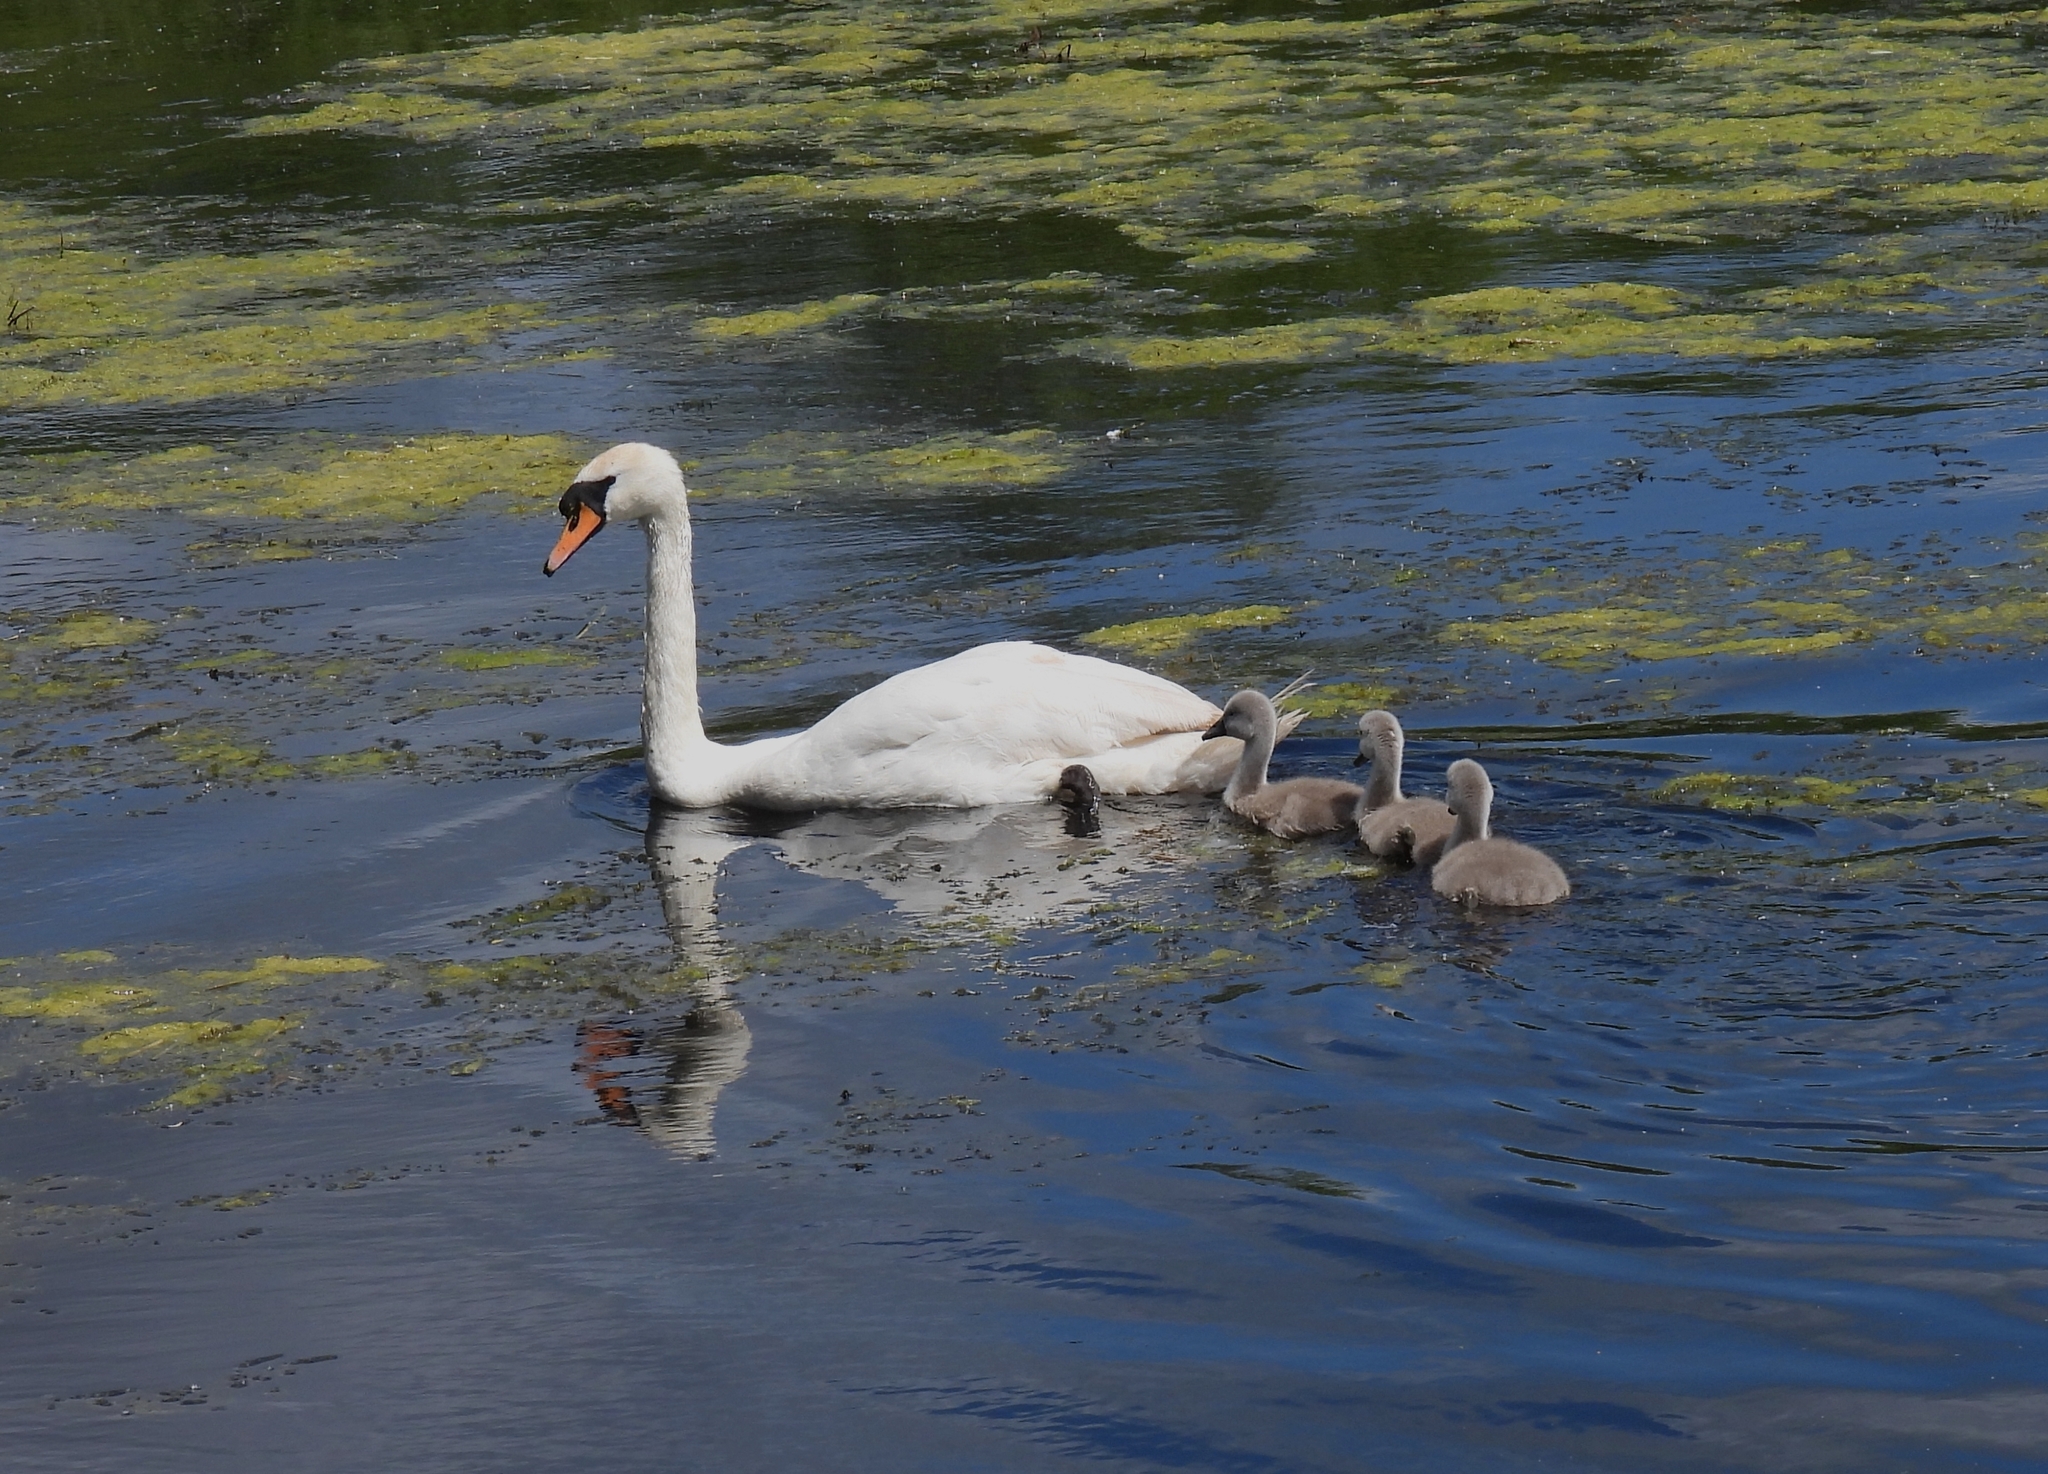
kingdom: Animalia
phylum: Chordata
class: Aves
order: Anseriformes
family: Anatidae
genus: Cygnus
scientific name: Cygnus olor
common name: Mute swan
